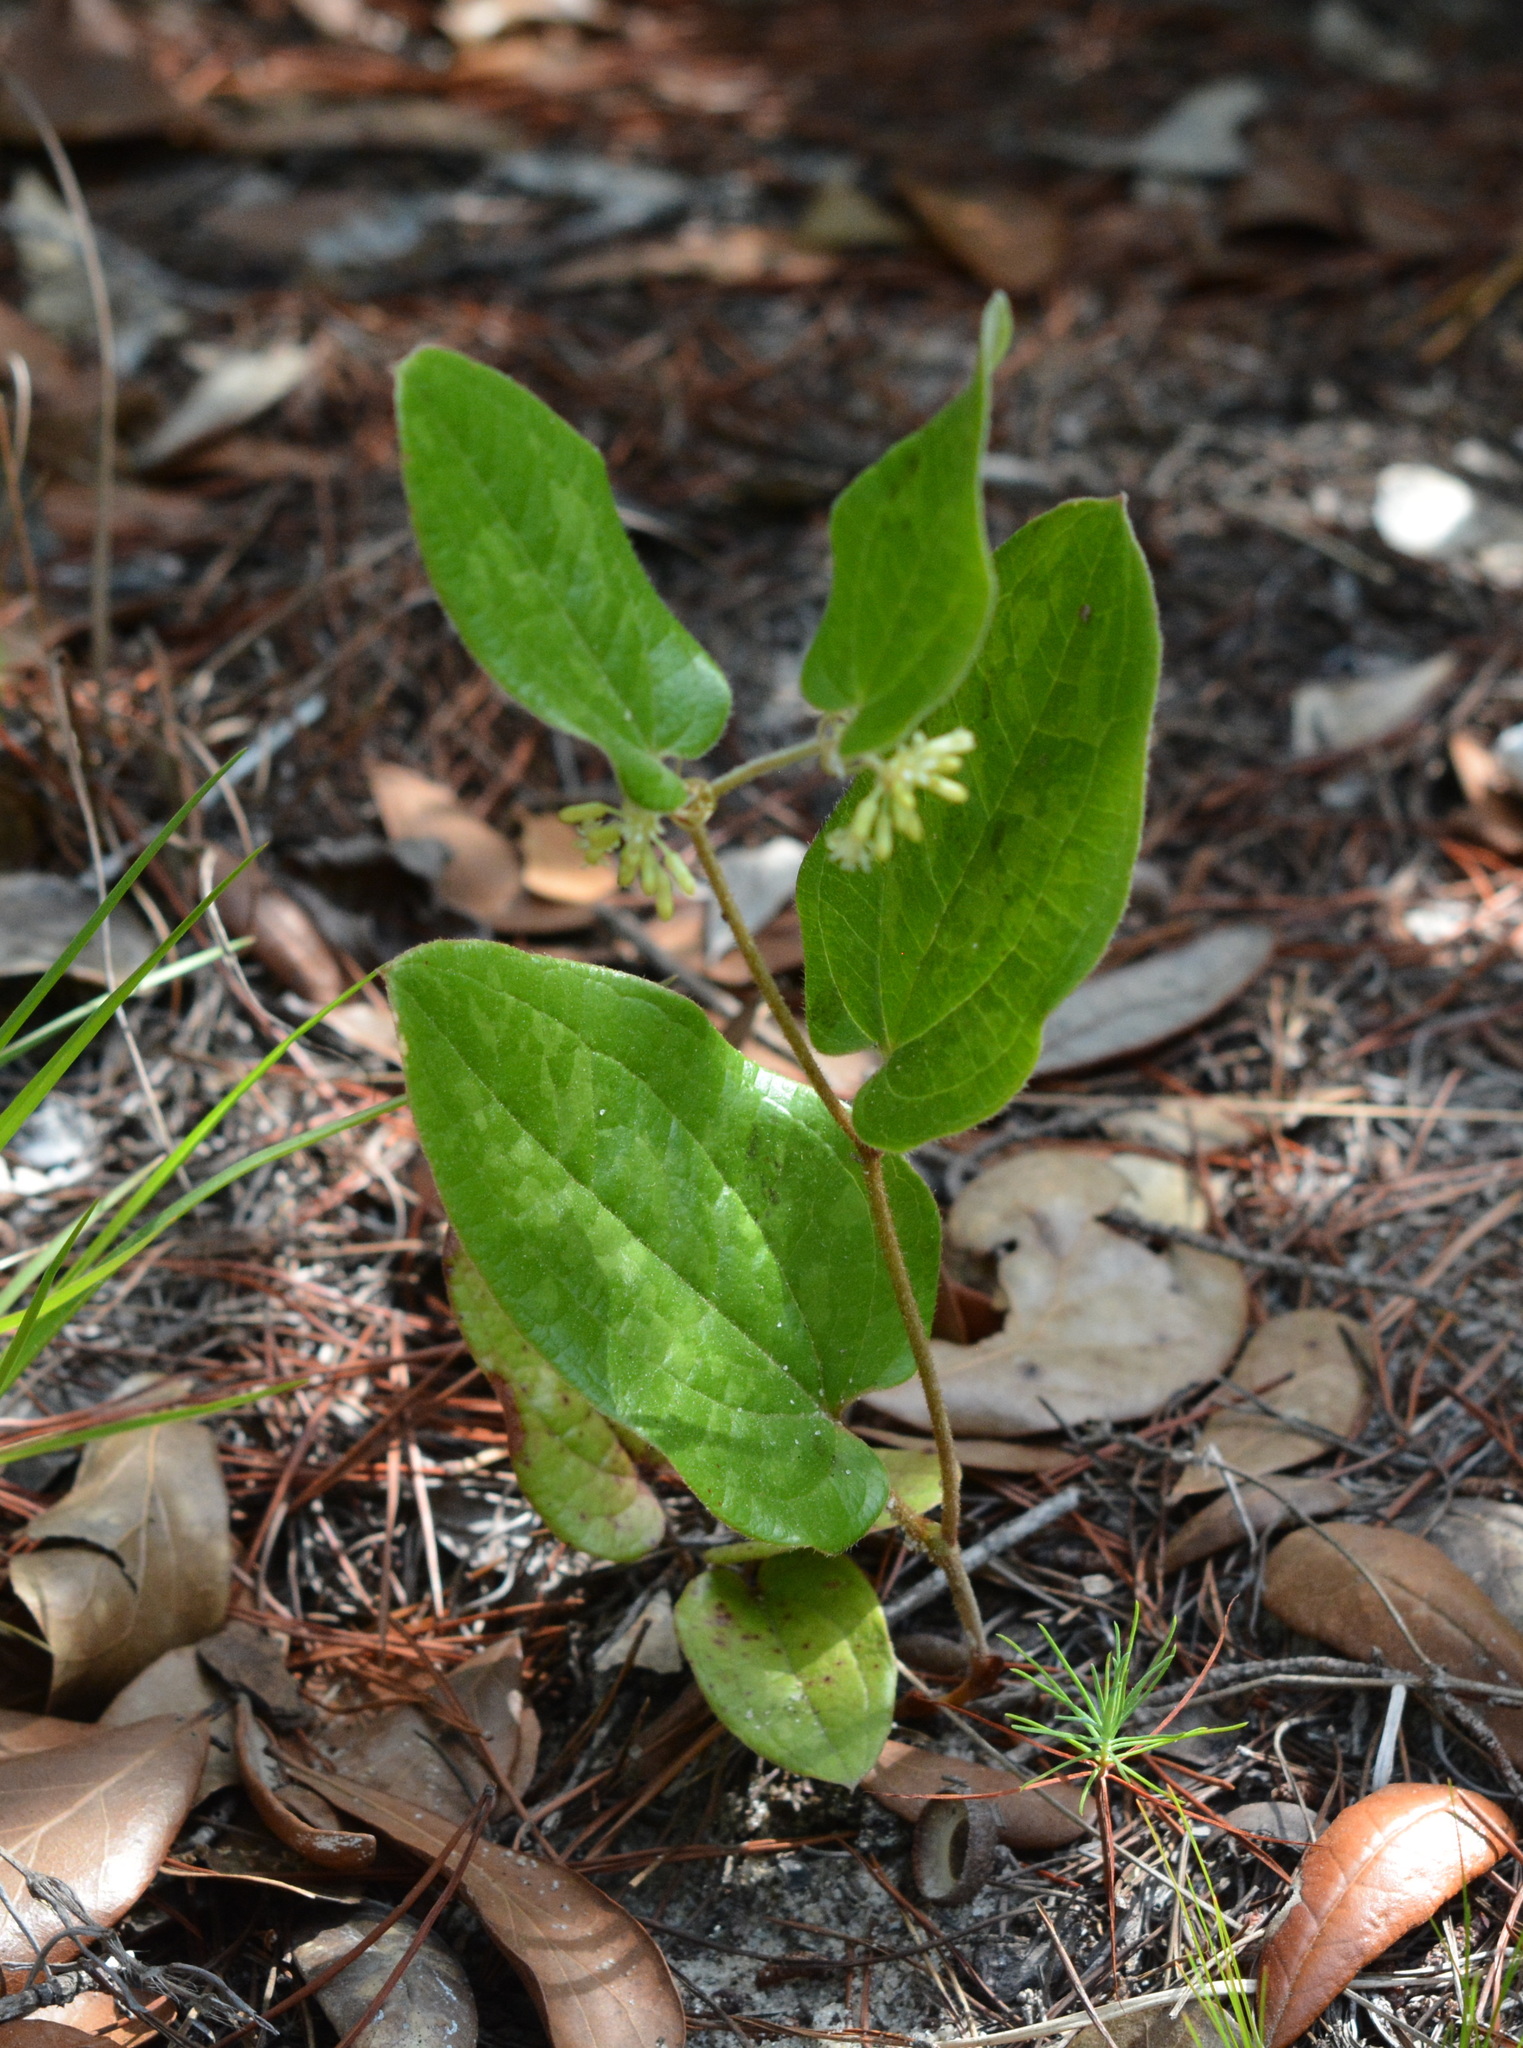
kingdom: Plantae
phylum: Tracheophyta
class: Liliopsida
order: Liliales
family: Smilacaceae
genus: Smilax
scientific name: Smilax pumila
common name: Sarsaparilla-vine
